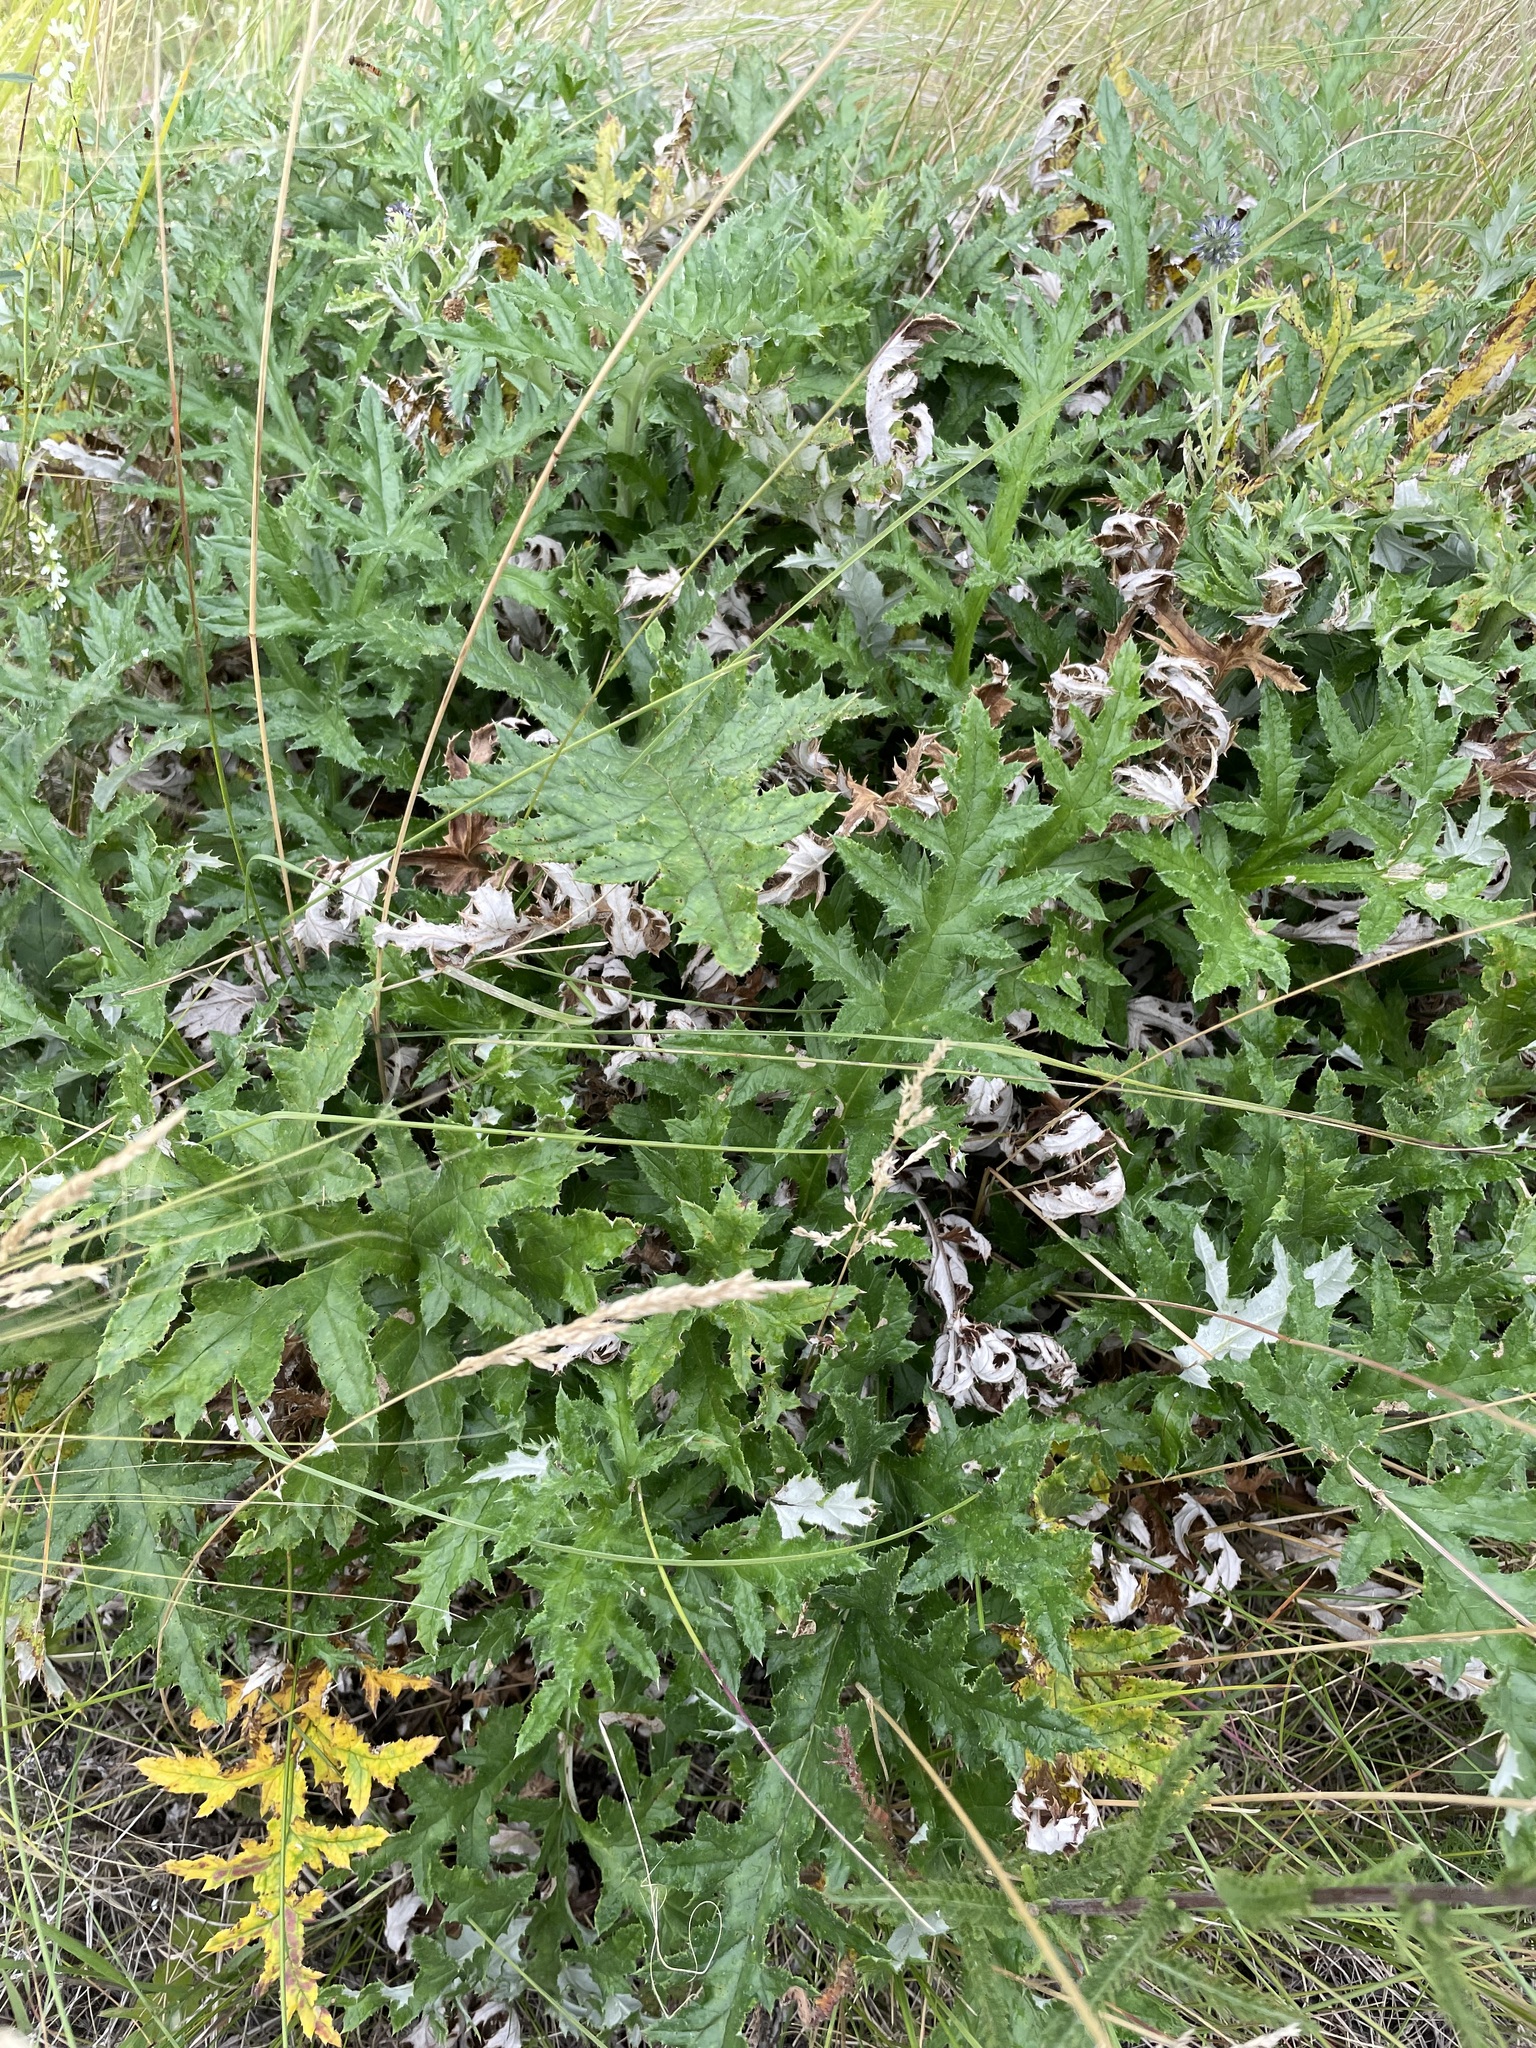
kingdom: Plantae
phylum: Tracheophyta
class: Magnoliopsida
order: Asterales
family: Asteraceae
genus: Echinops
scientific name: Echinops ritro
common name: Globe thistle
